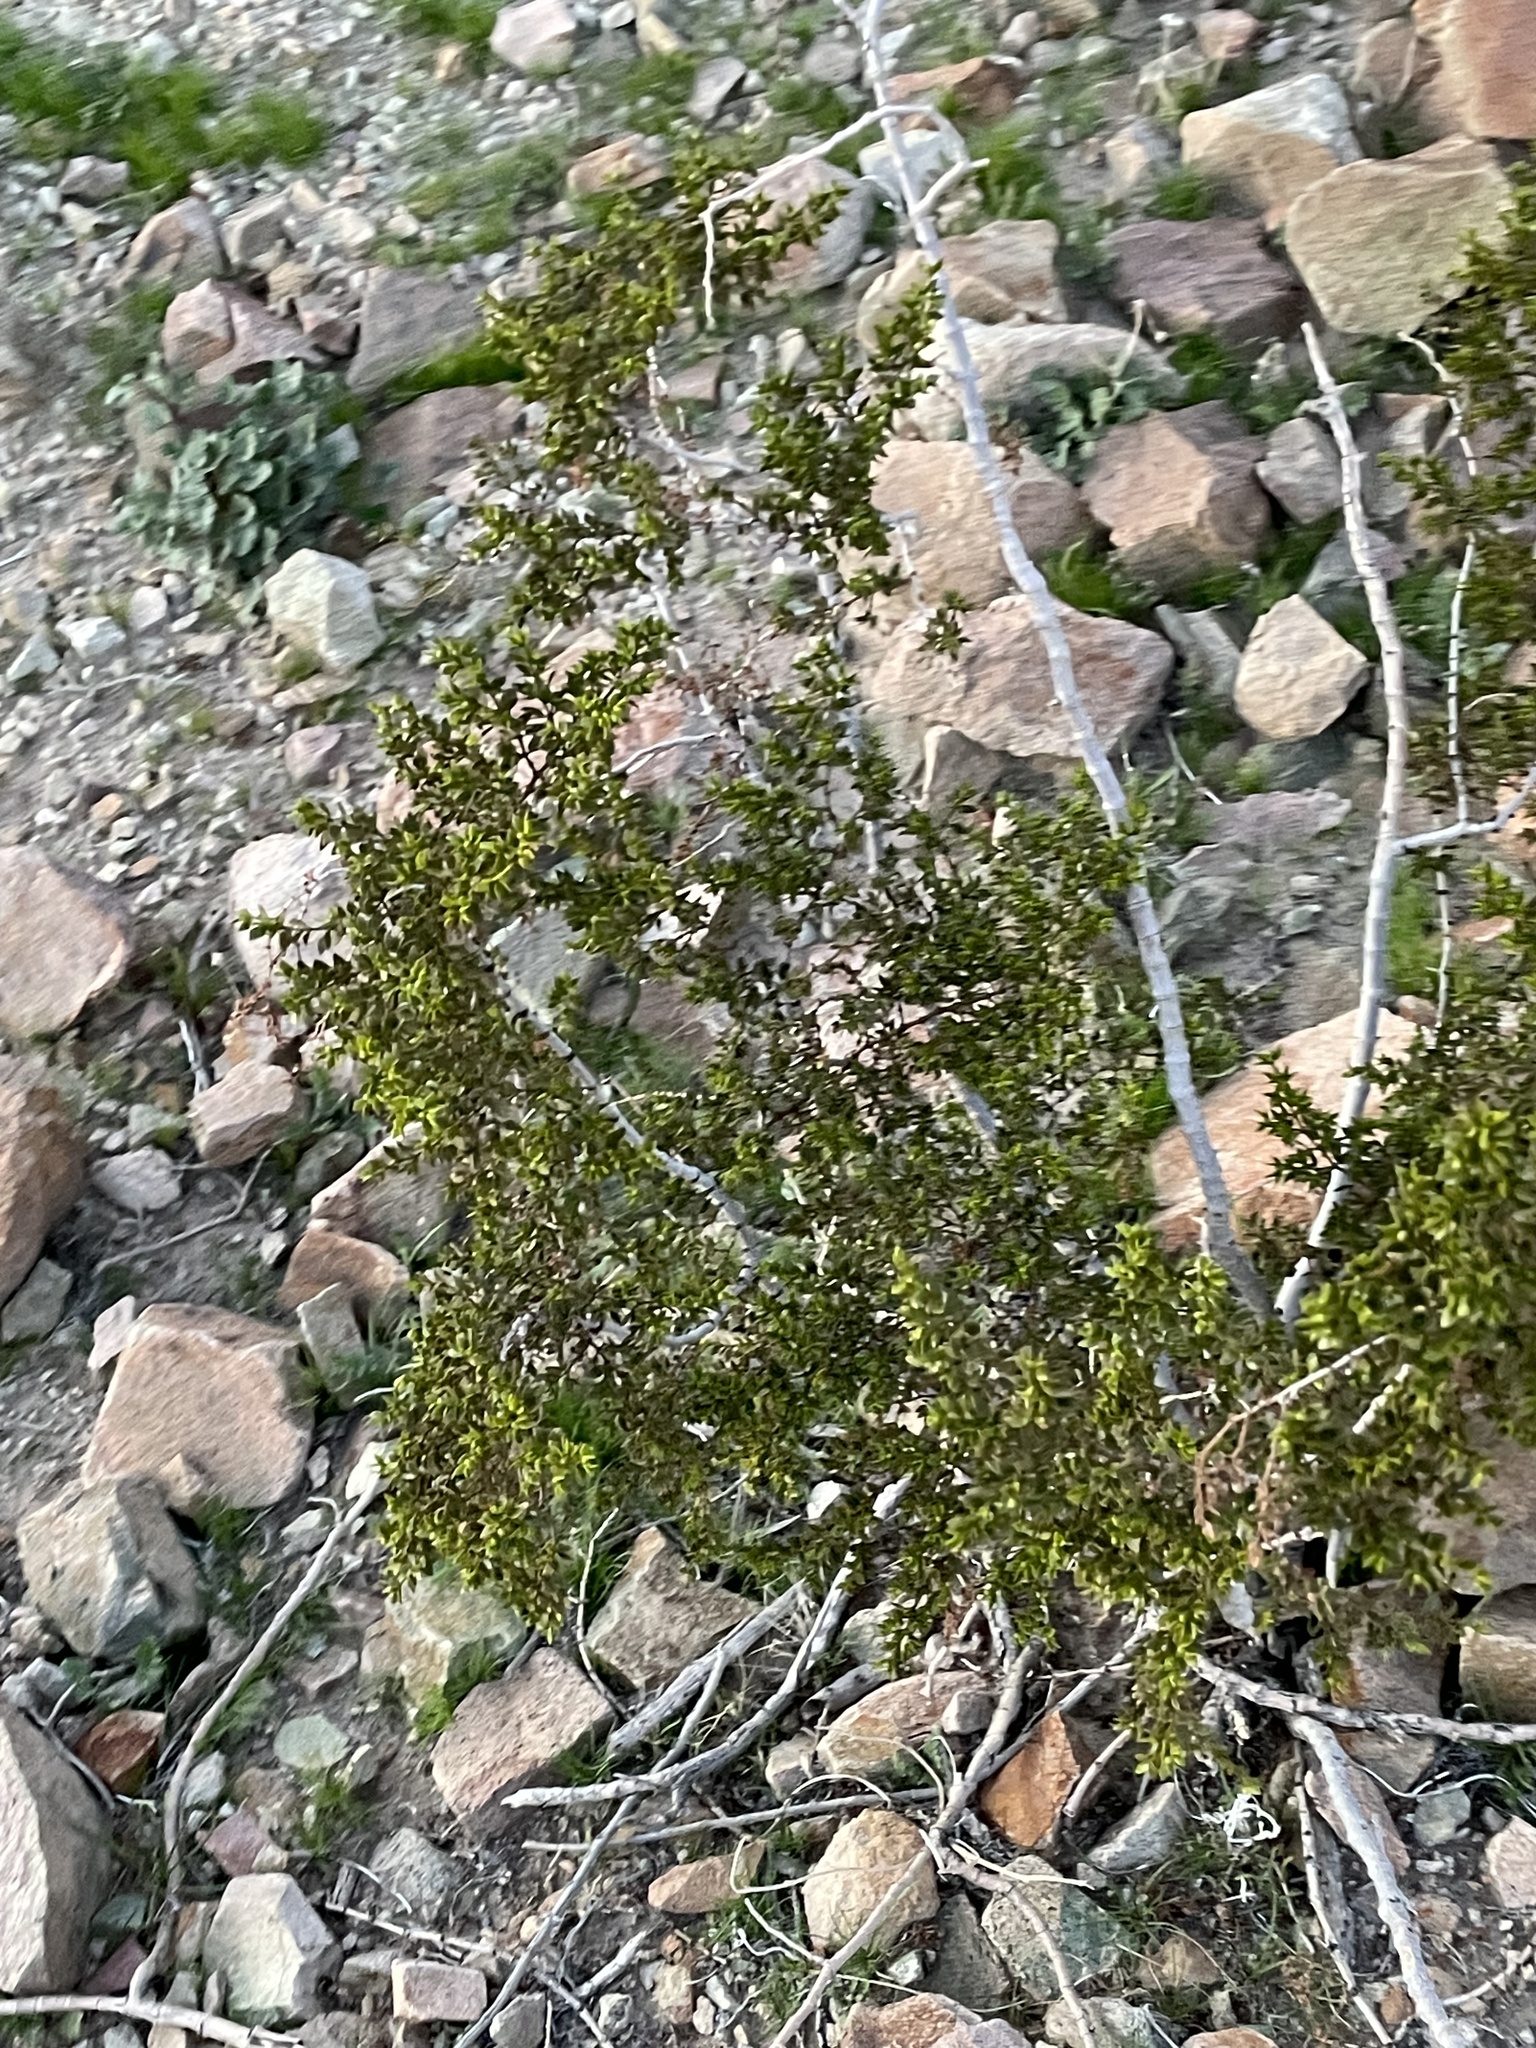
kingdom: Plantae
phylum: Tracheophyta
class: Magnoliopsida
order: Zygophyllales
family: Zygophyllaceae
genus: Larrea
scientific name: Larrea tridentata
